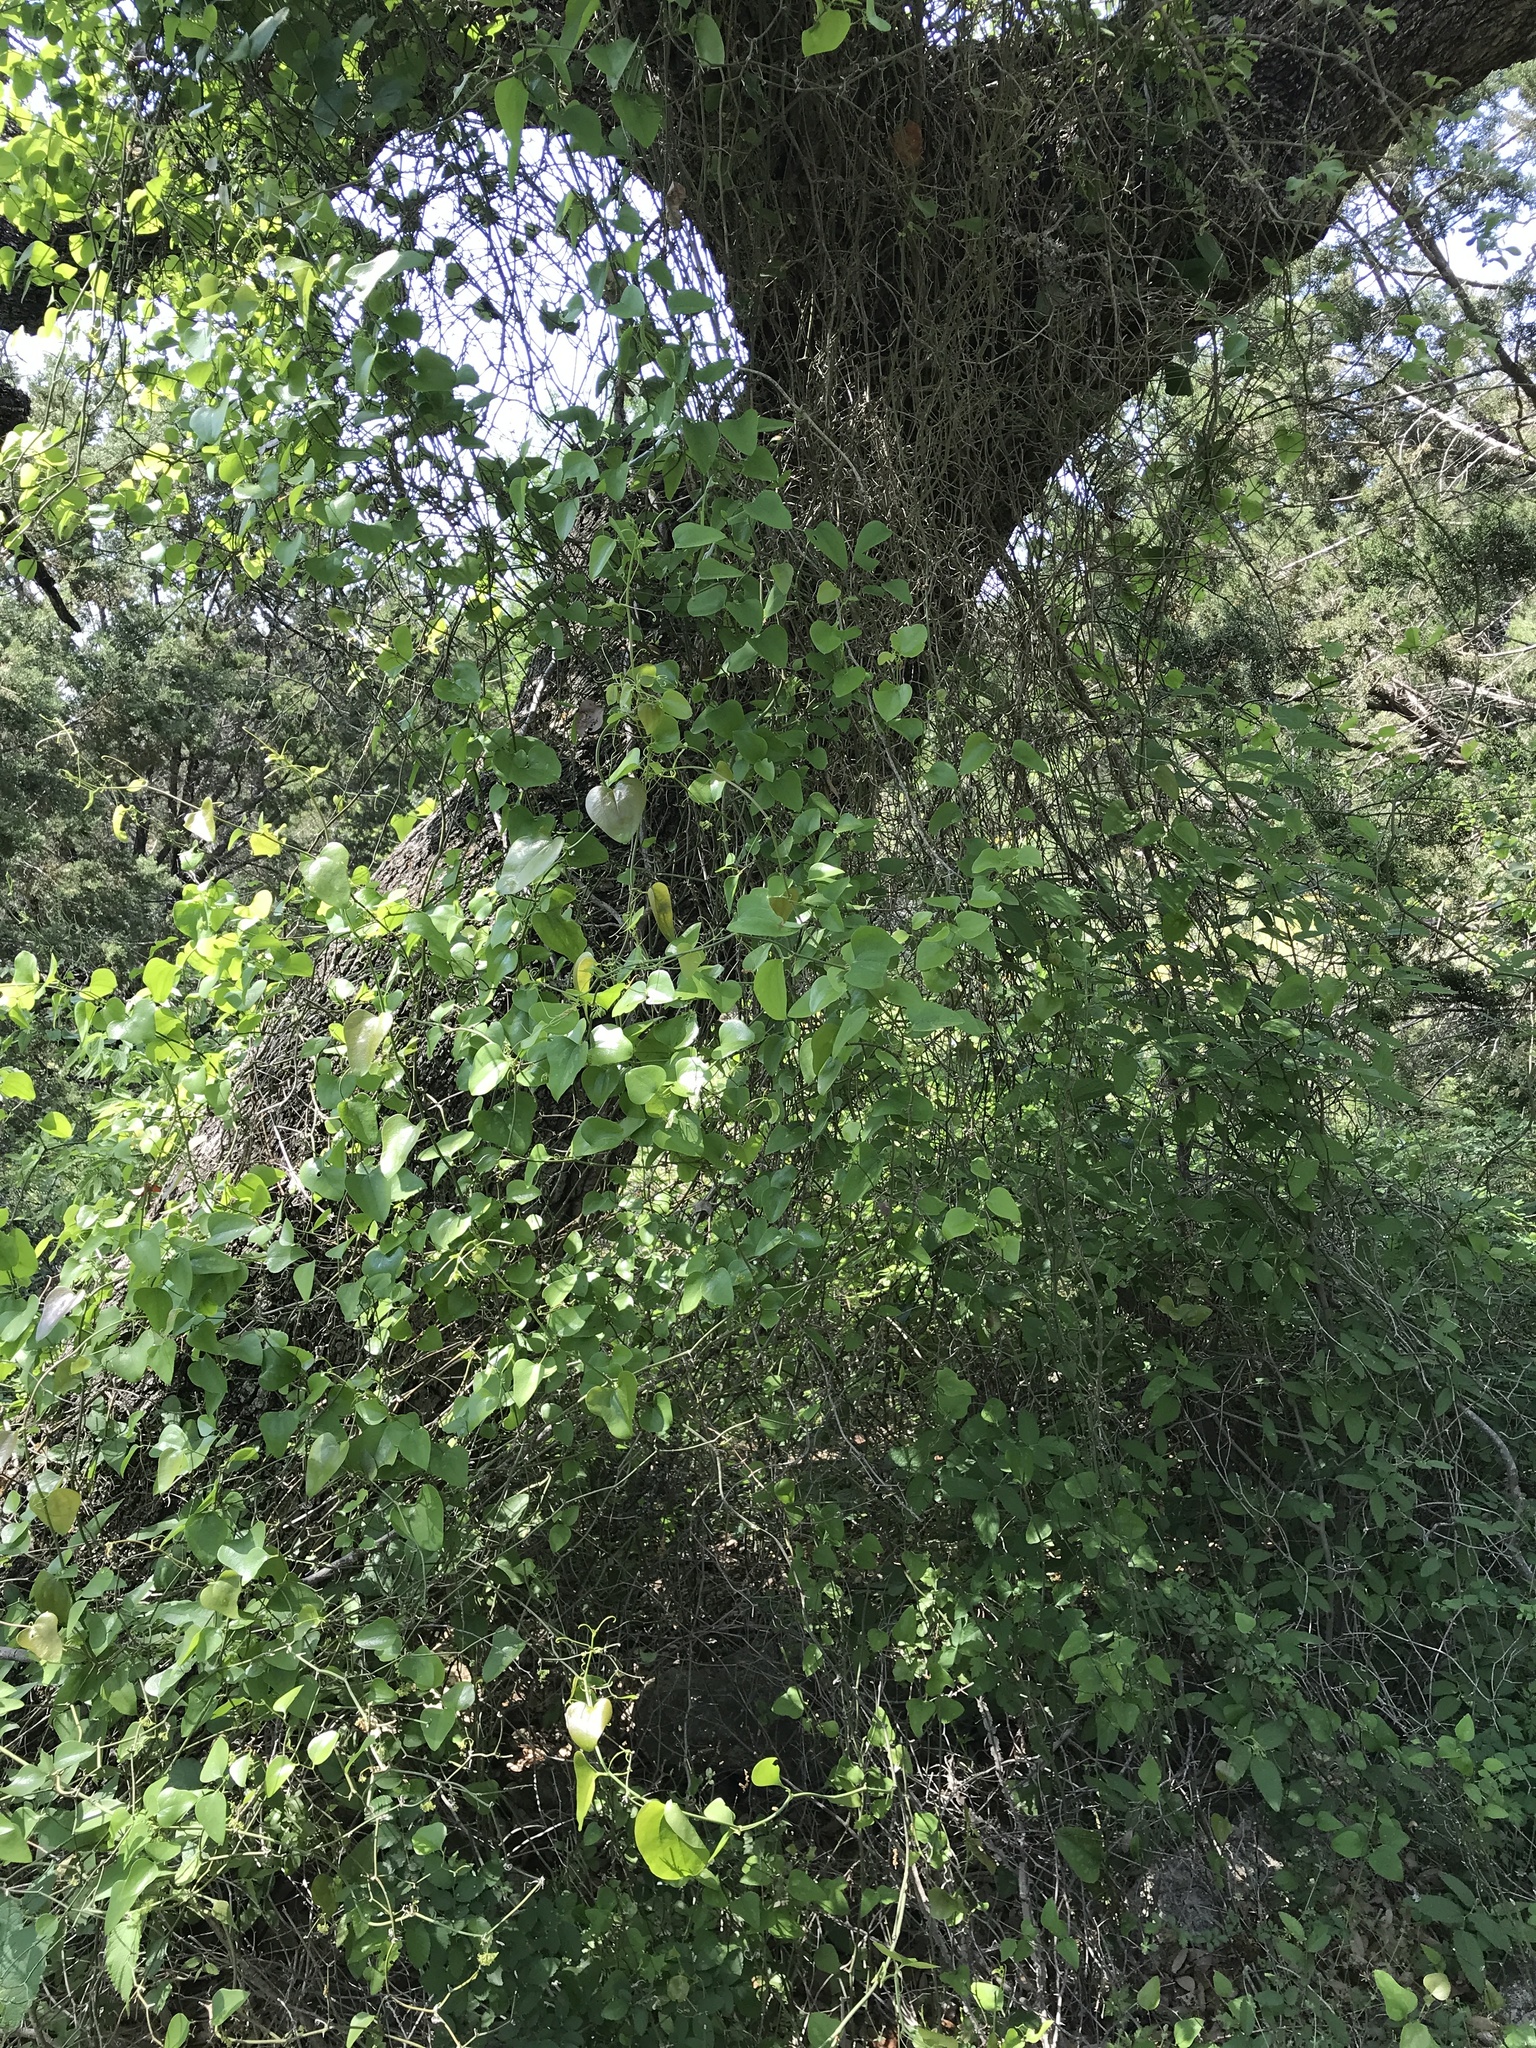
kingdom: Plantae
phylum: Tracheophyta
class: Liliopsida
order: Liliales
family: Smilacaceae
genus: Smilax
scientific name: Smilax bona-nox
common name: Catbrier
